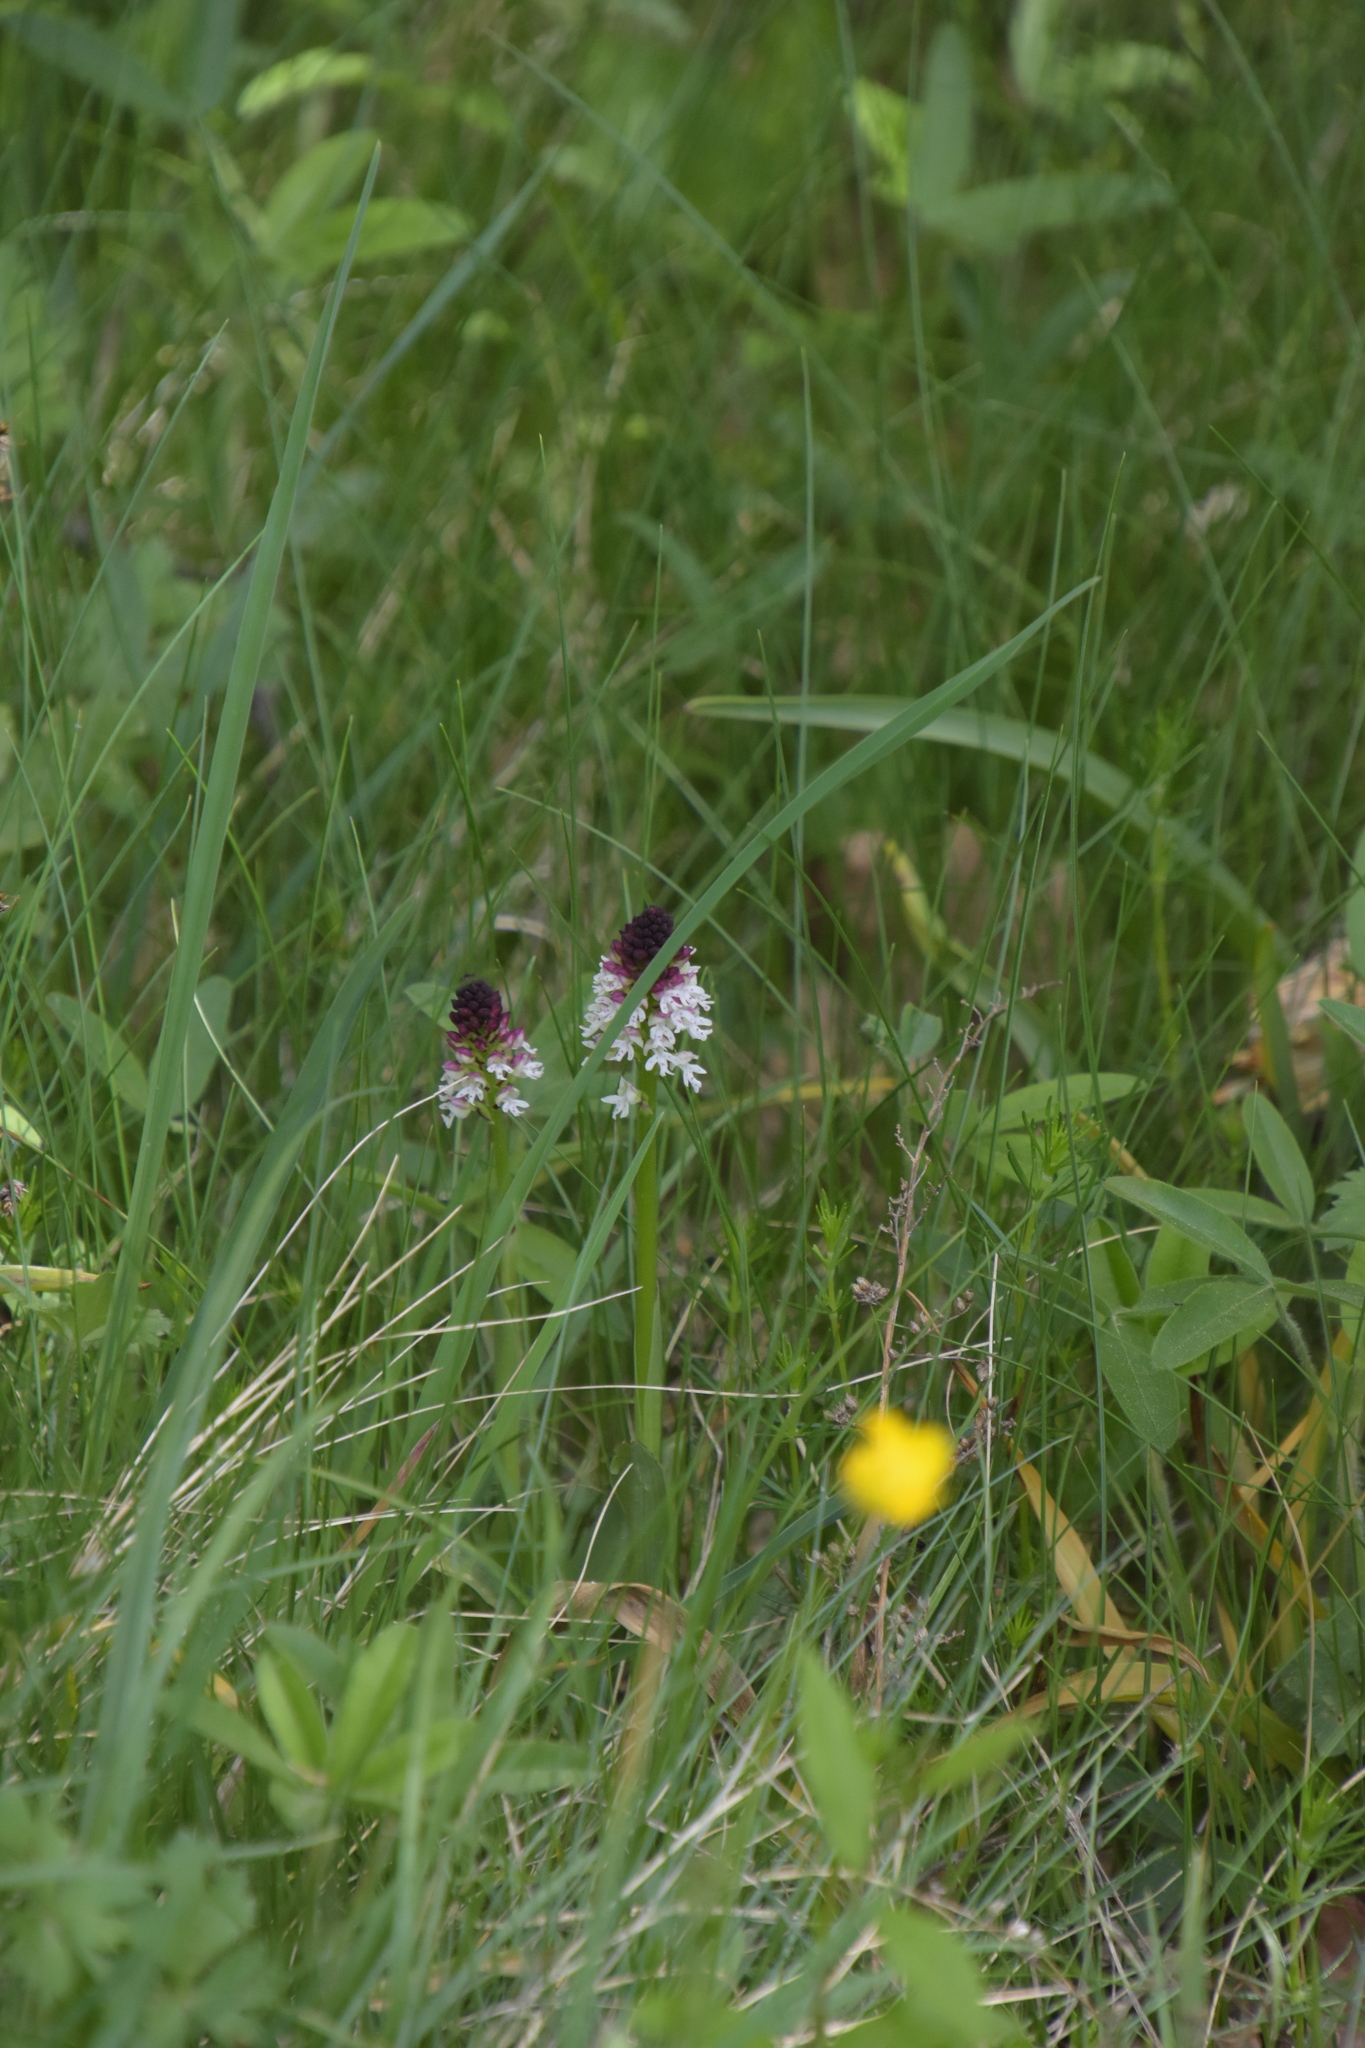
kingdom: Plantae
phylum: Tracheophyta
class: Liliopsida
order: Asparagales
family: Orchidaceae
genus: Neotinea
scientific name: Neotinea ustulata
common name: Burnt orchid
